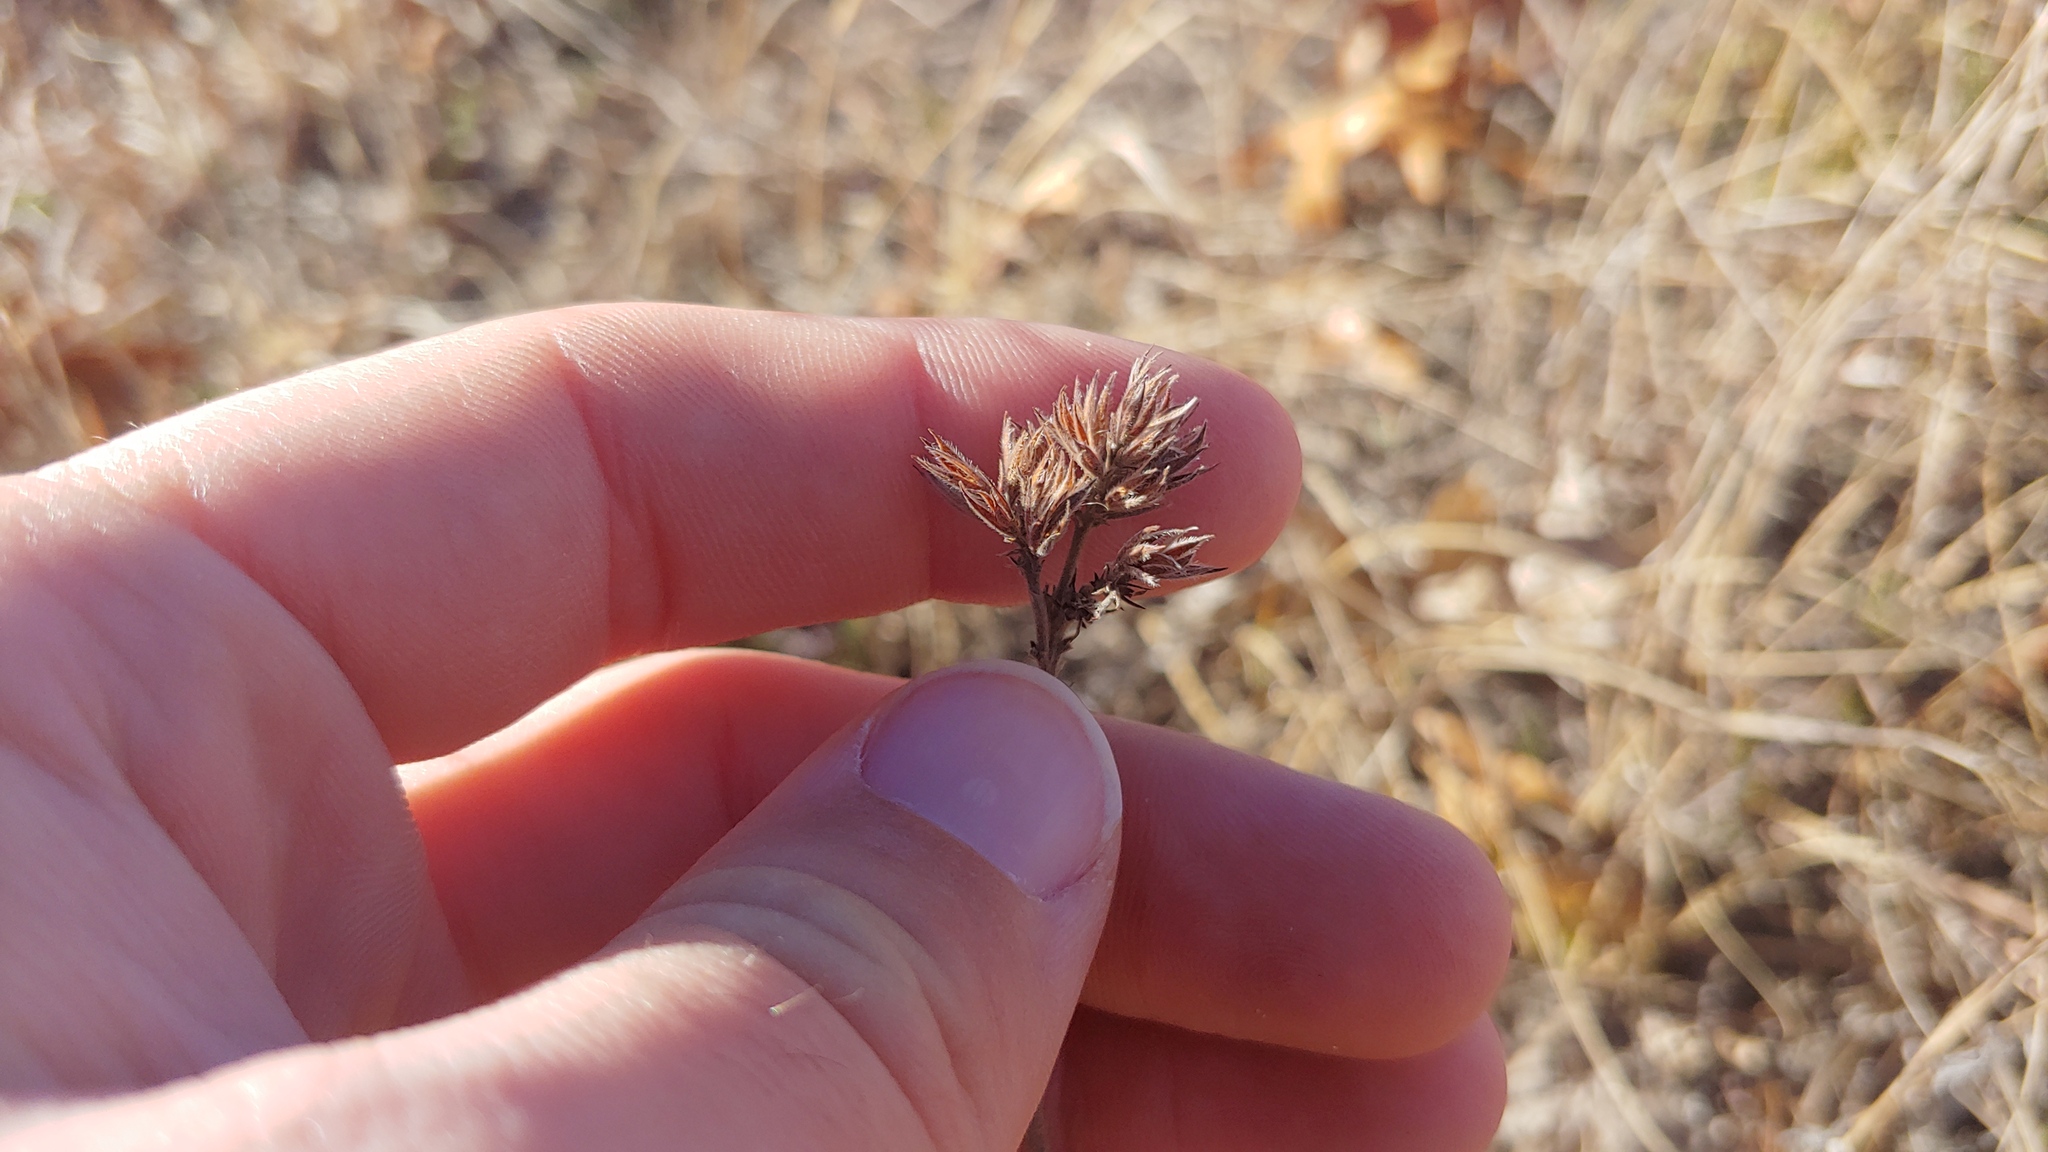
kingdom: Plantae
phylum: Tracheophyta
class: Magnoliopsida
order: Fabales
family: Fabaceae
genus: Lespedeza
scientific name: Lespedeza leptostachya
